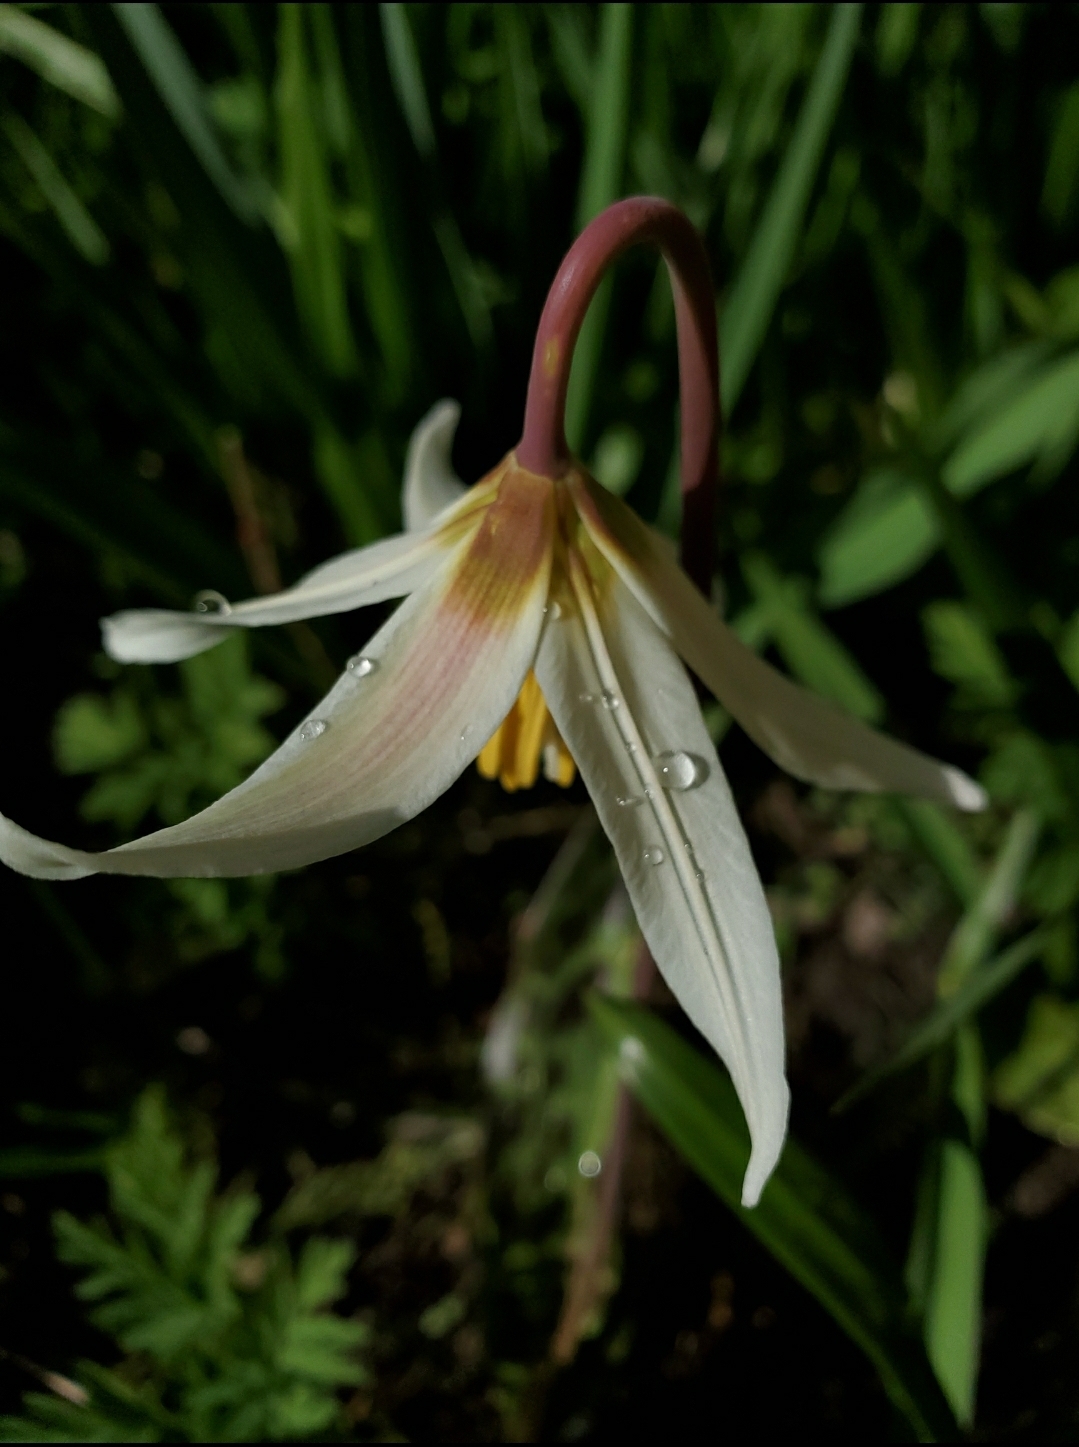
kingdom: Plantae
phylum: Tracheophyta
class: Liliopsida
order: Liliales
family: Liliaceae
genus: Erythronium
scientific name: Erythronium oregonum
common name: Giant adder's-tongue
